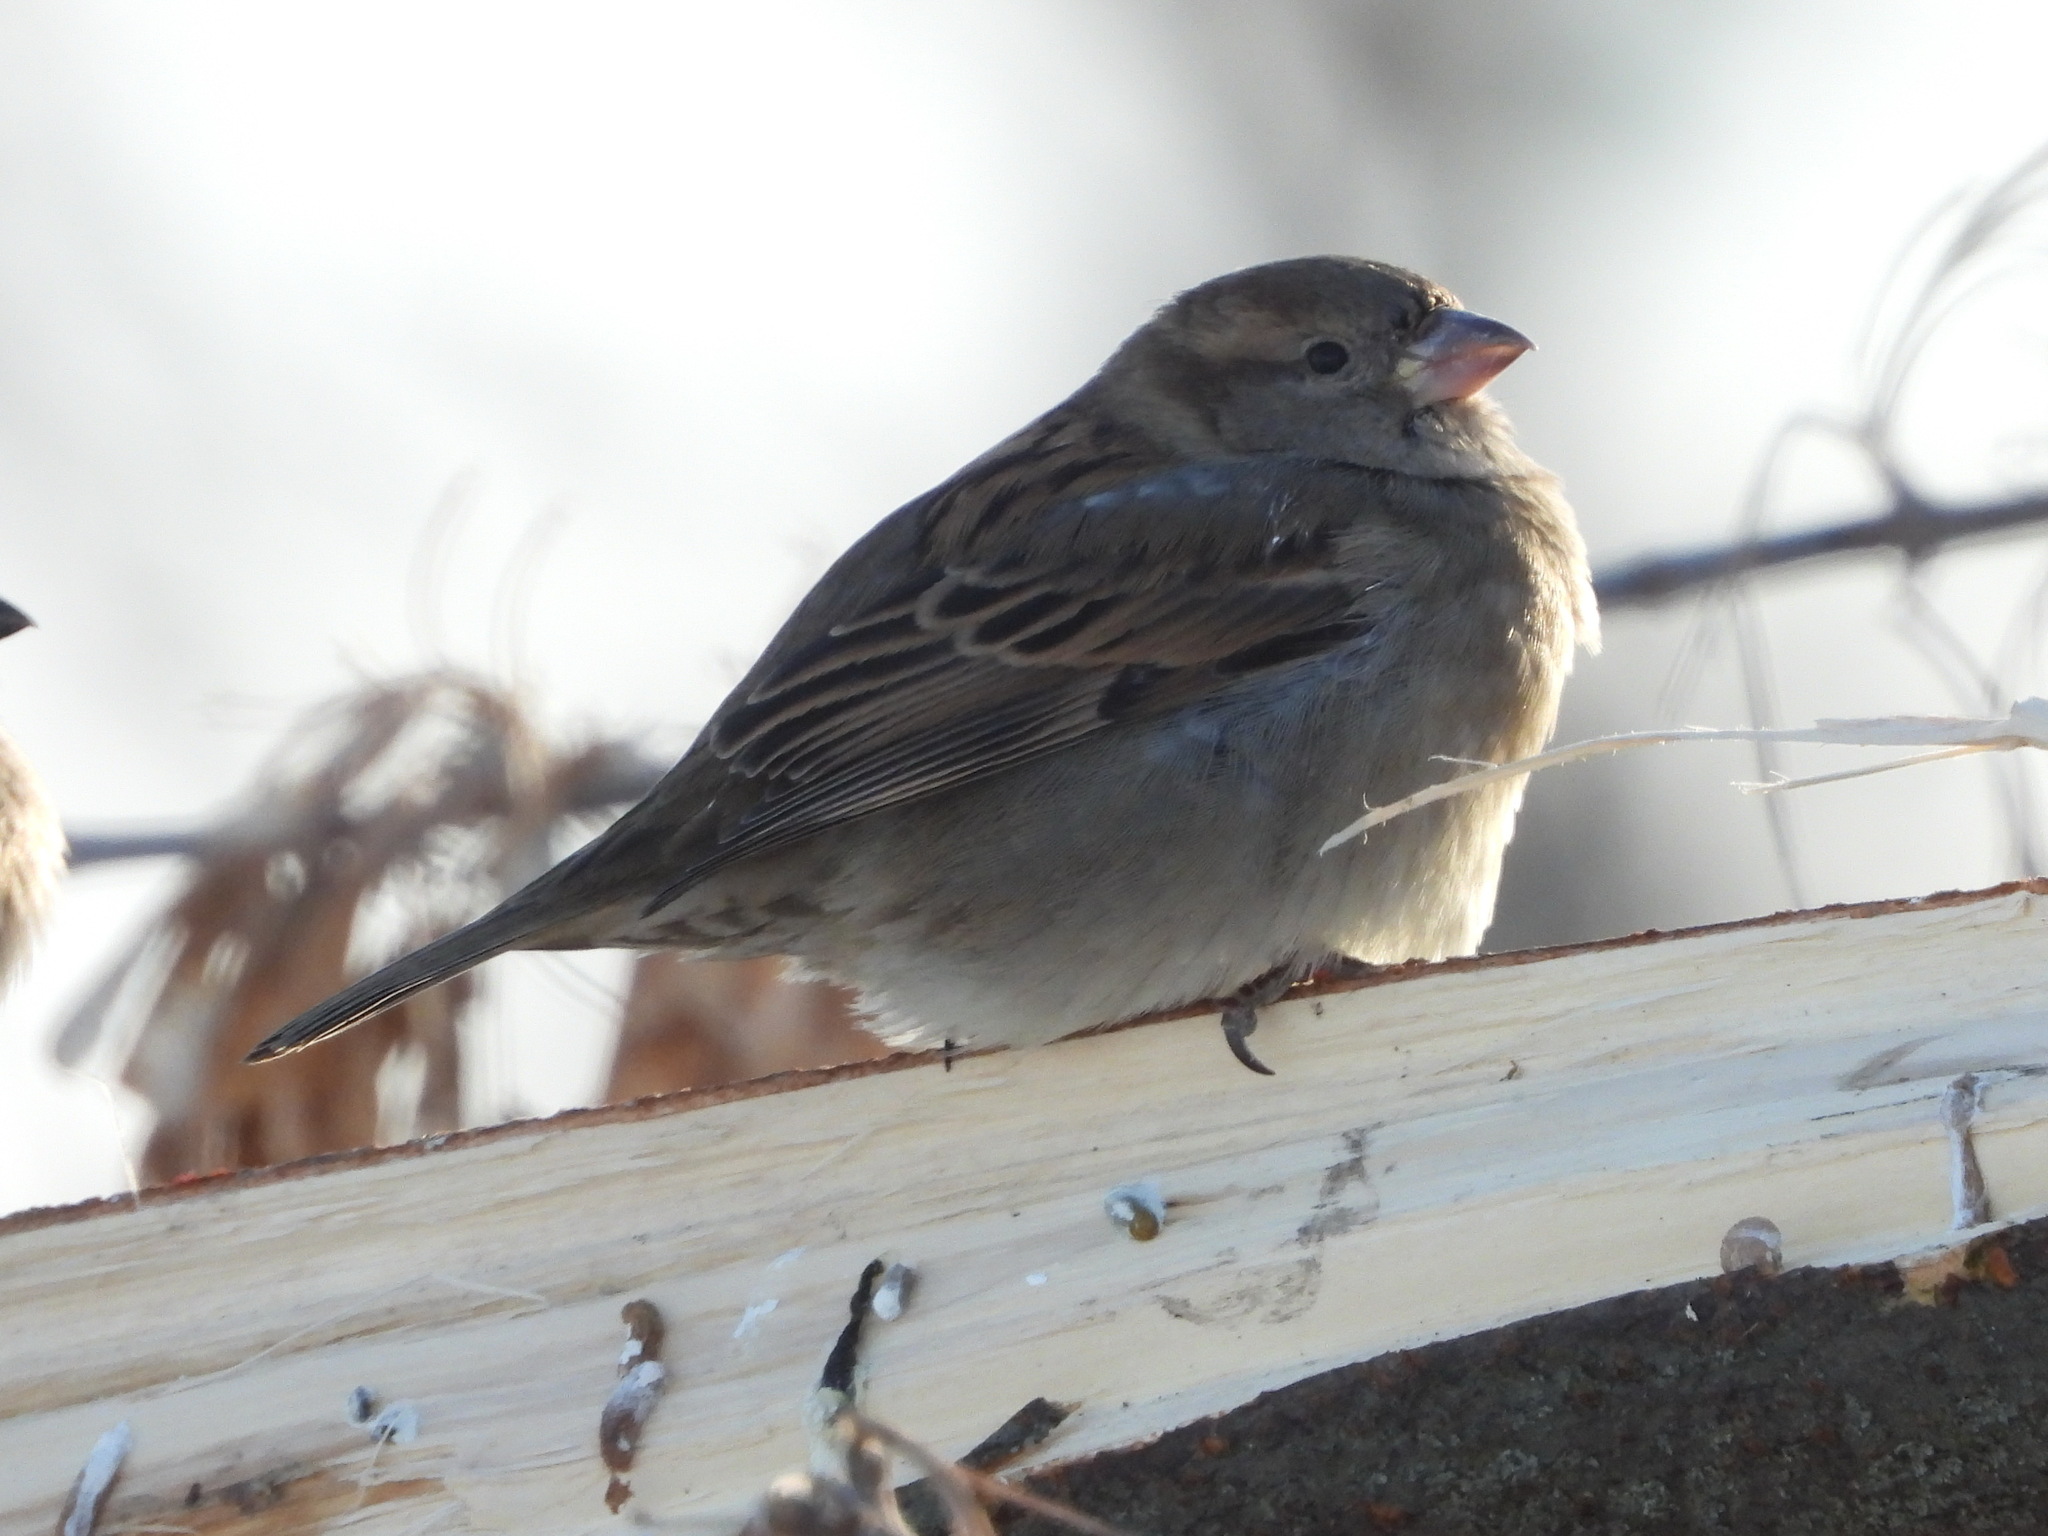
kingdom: Animalia
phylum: Chordata
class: Aves
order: Passeriformes
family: Passeridae
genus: Passer
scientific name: Passer domesticus
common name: House sparrow
